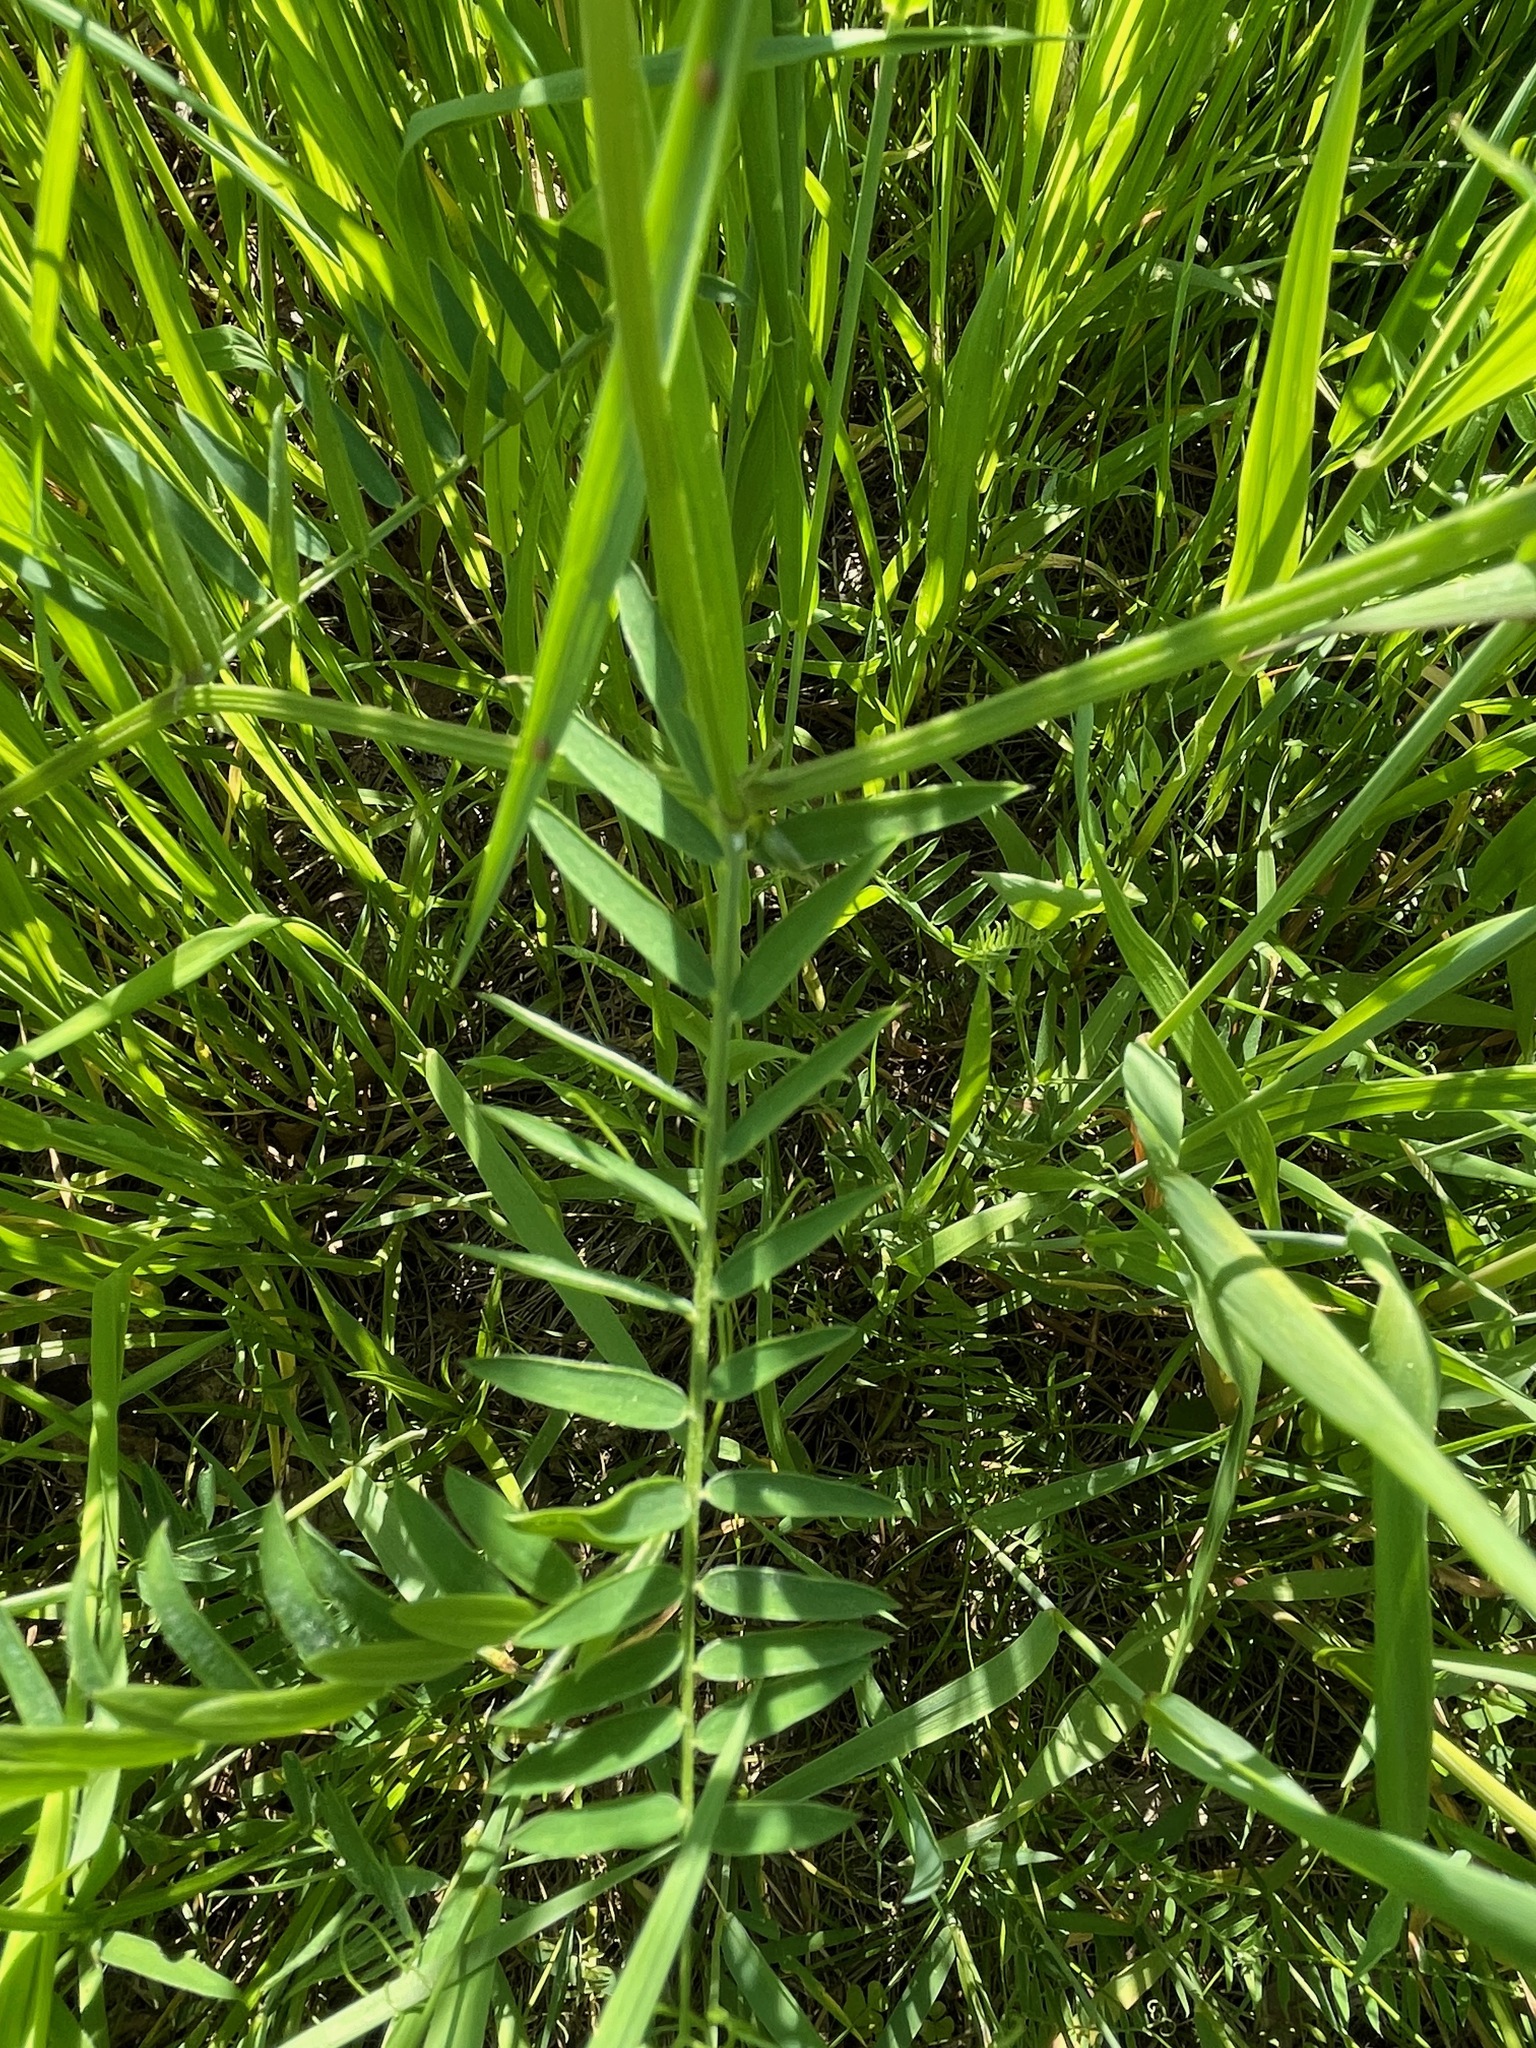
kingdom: Plantae
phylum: Tracheophyta
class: Magnoliopsida
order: Fabales
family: Fabaceae
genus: Vicia
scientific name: Vicia cracca
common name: Bird vetch
